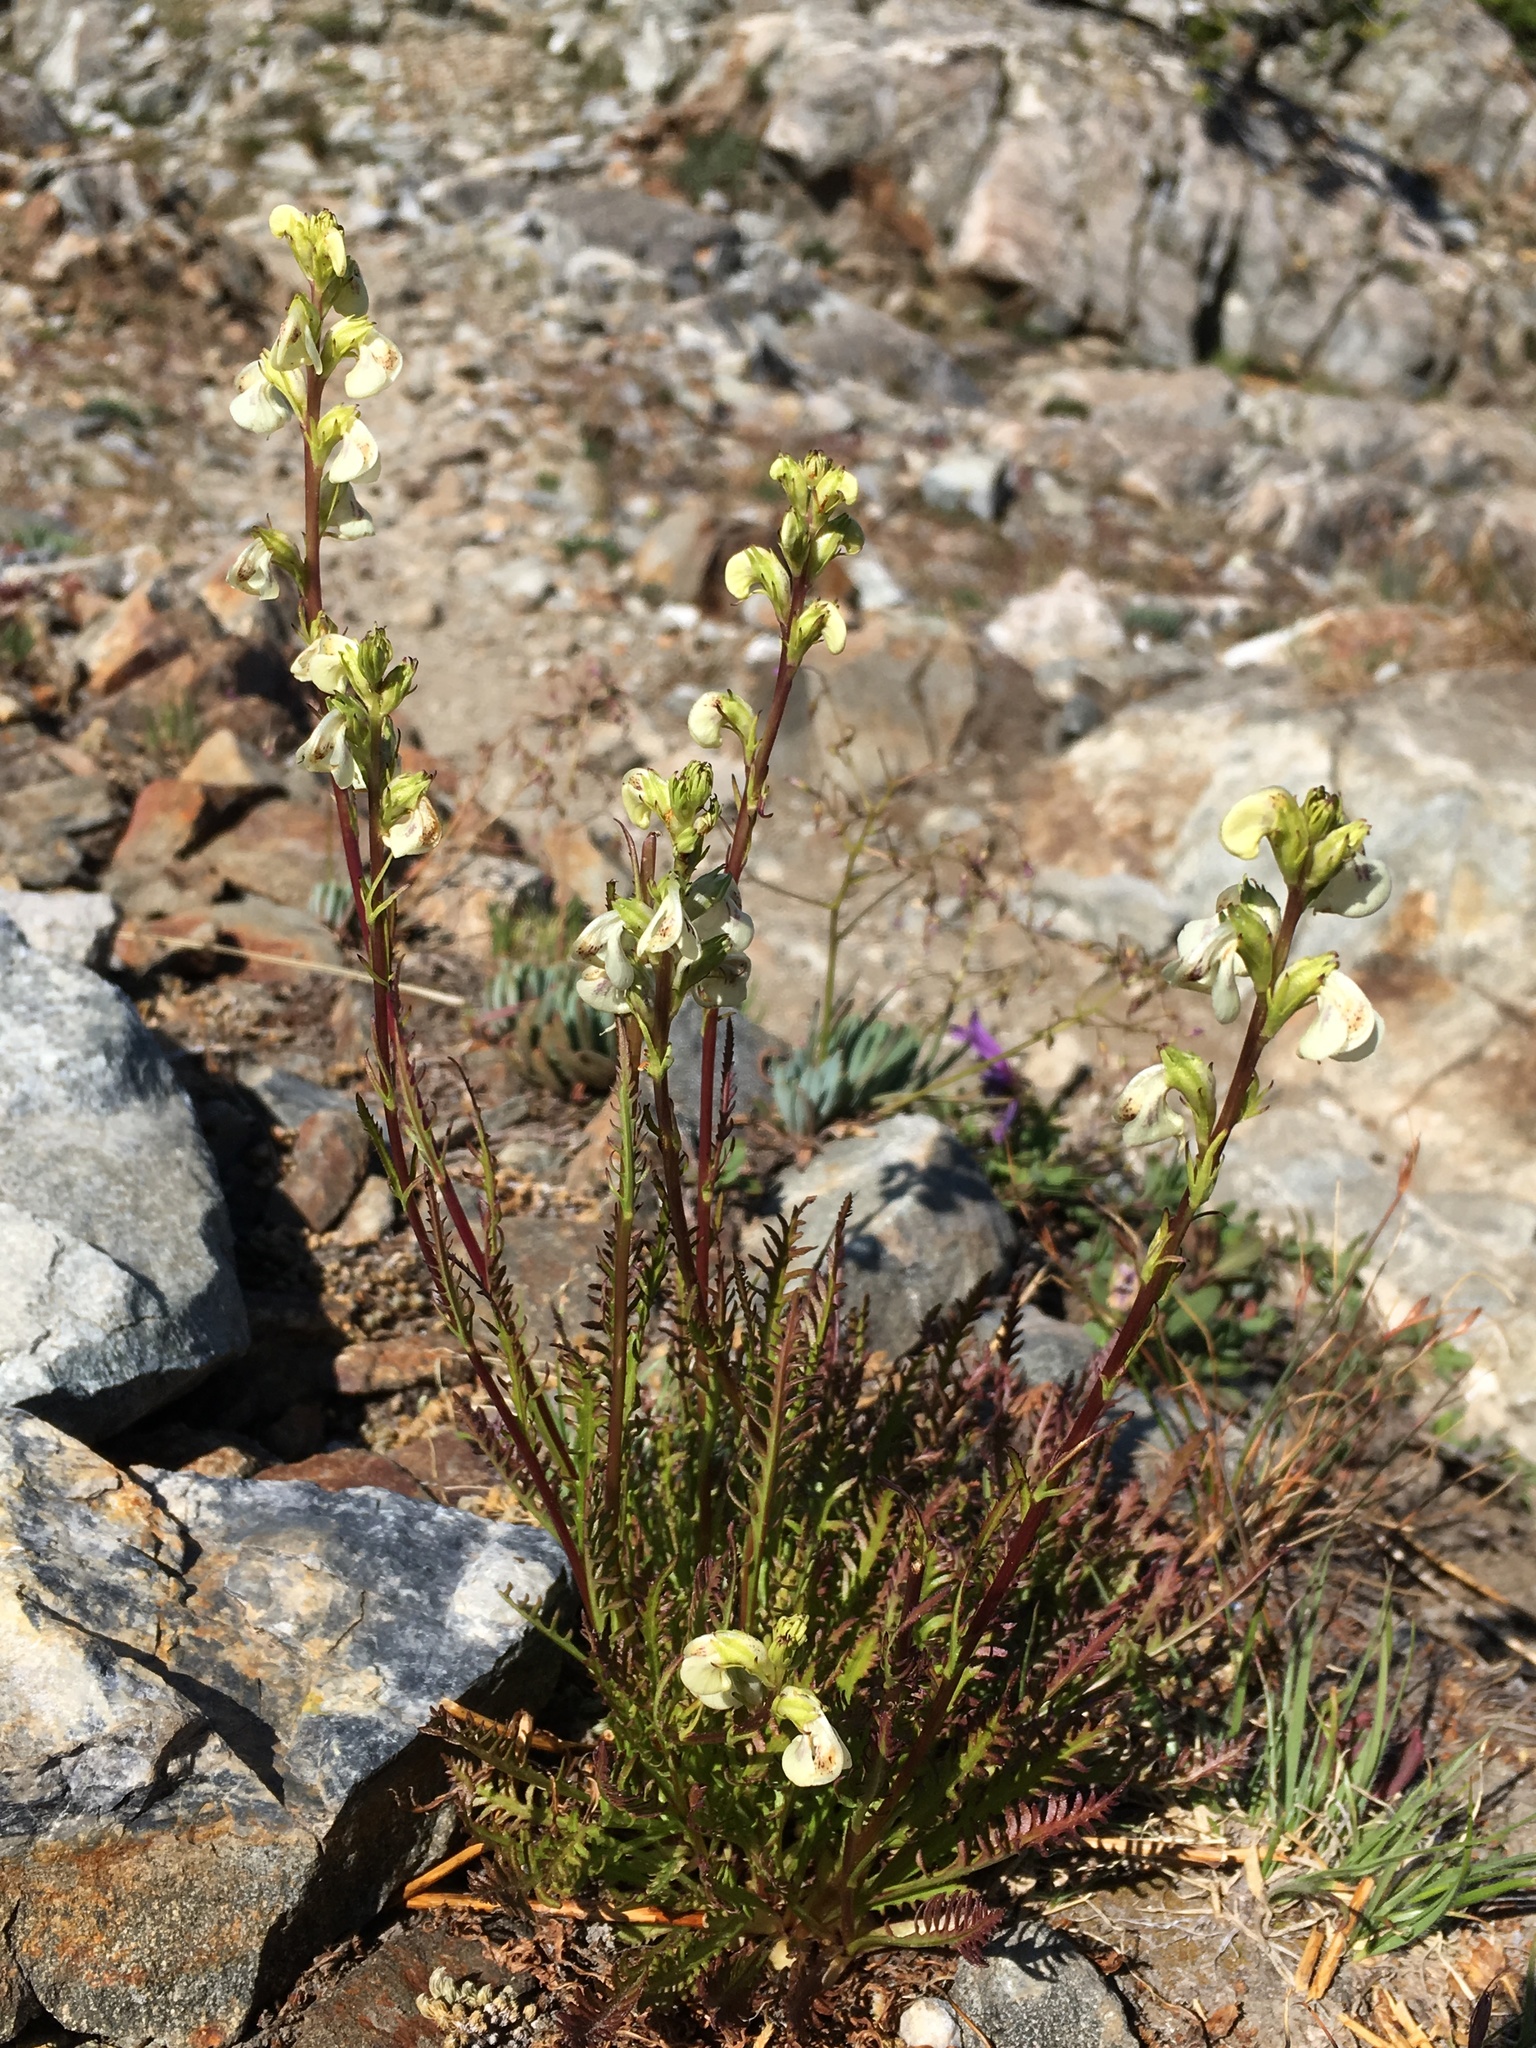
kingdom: Plantae
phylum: Tracheophyta
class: Magnoliopsida
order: Lamiales
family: Orobanchaceae
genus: Pedicularis
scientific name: Pedicularis contorta
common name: Coiled lousewort
